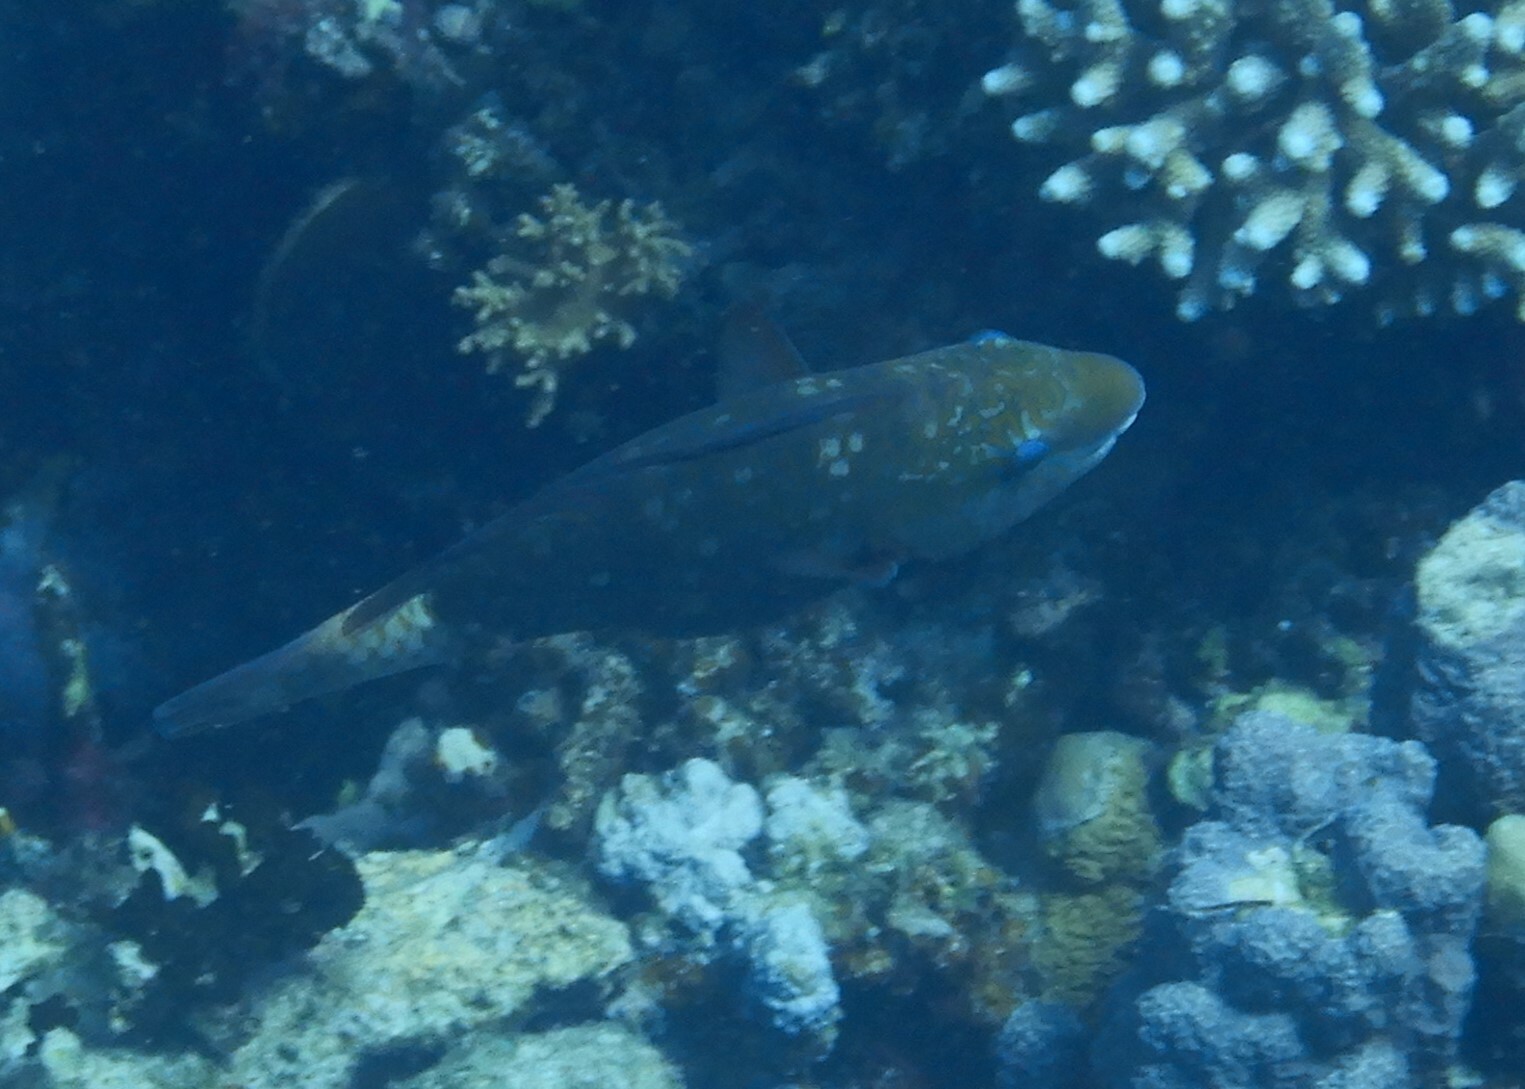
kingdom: Animalia
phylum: Chordata
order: Perciformes
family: Scaridae
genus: Chlorurus
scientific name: Chlorurus sordidus
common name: Bullethead parrotfish
